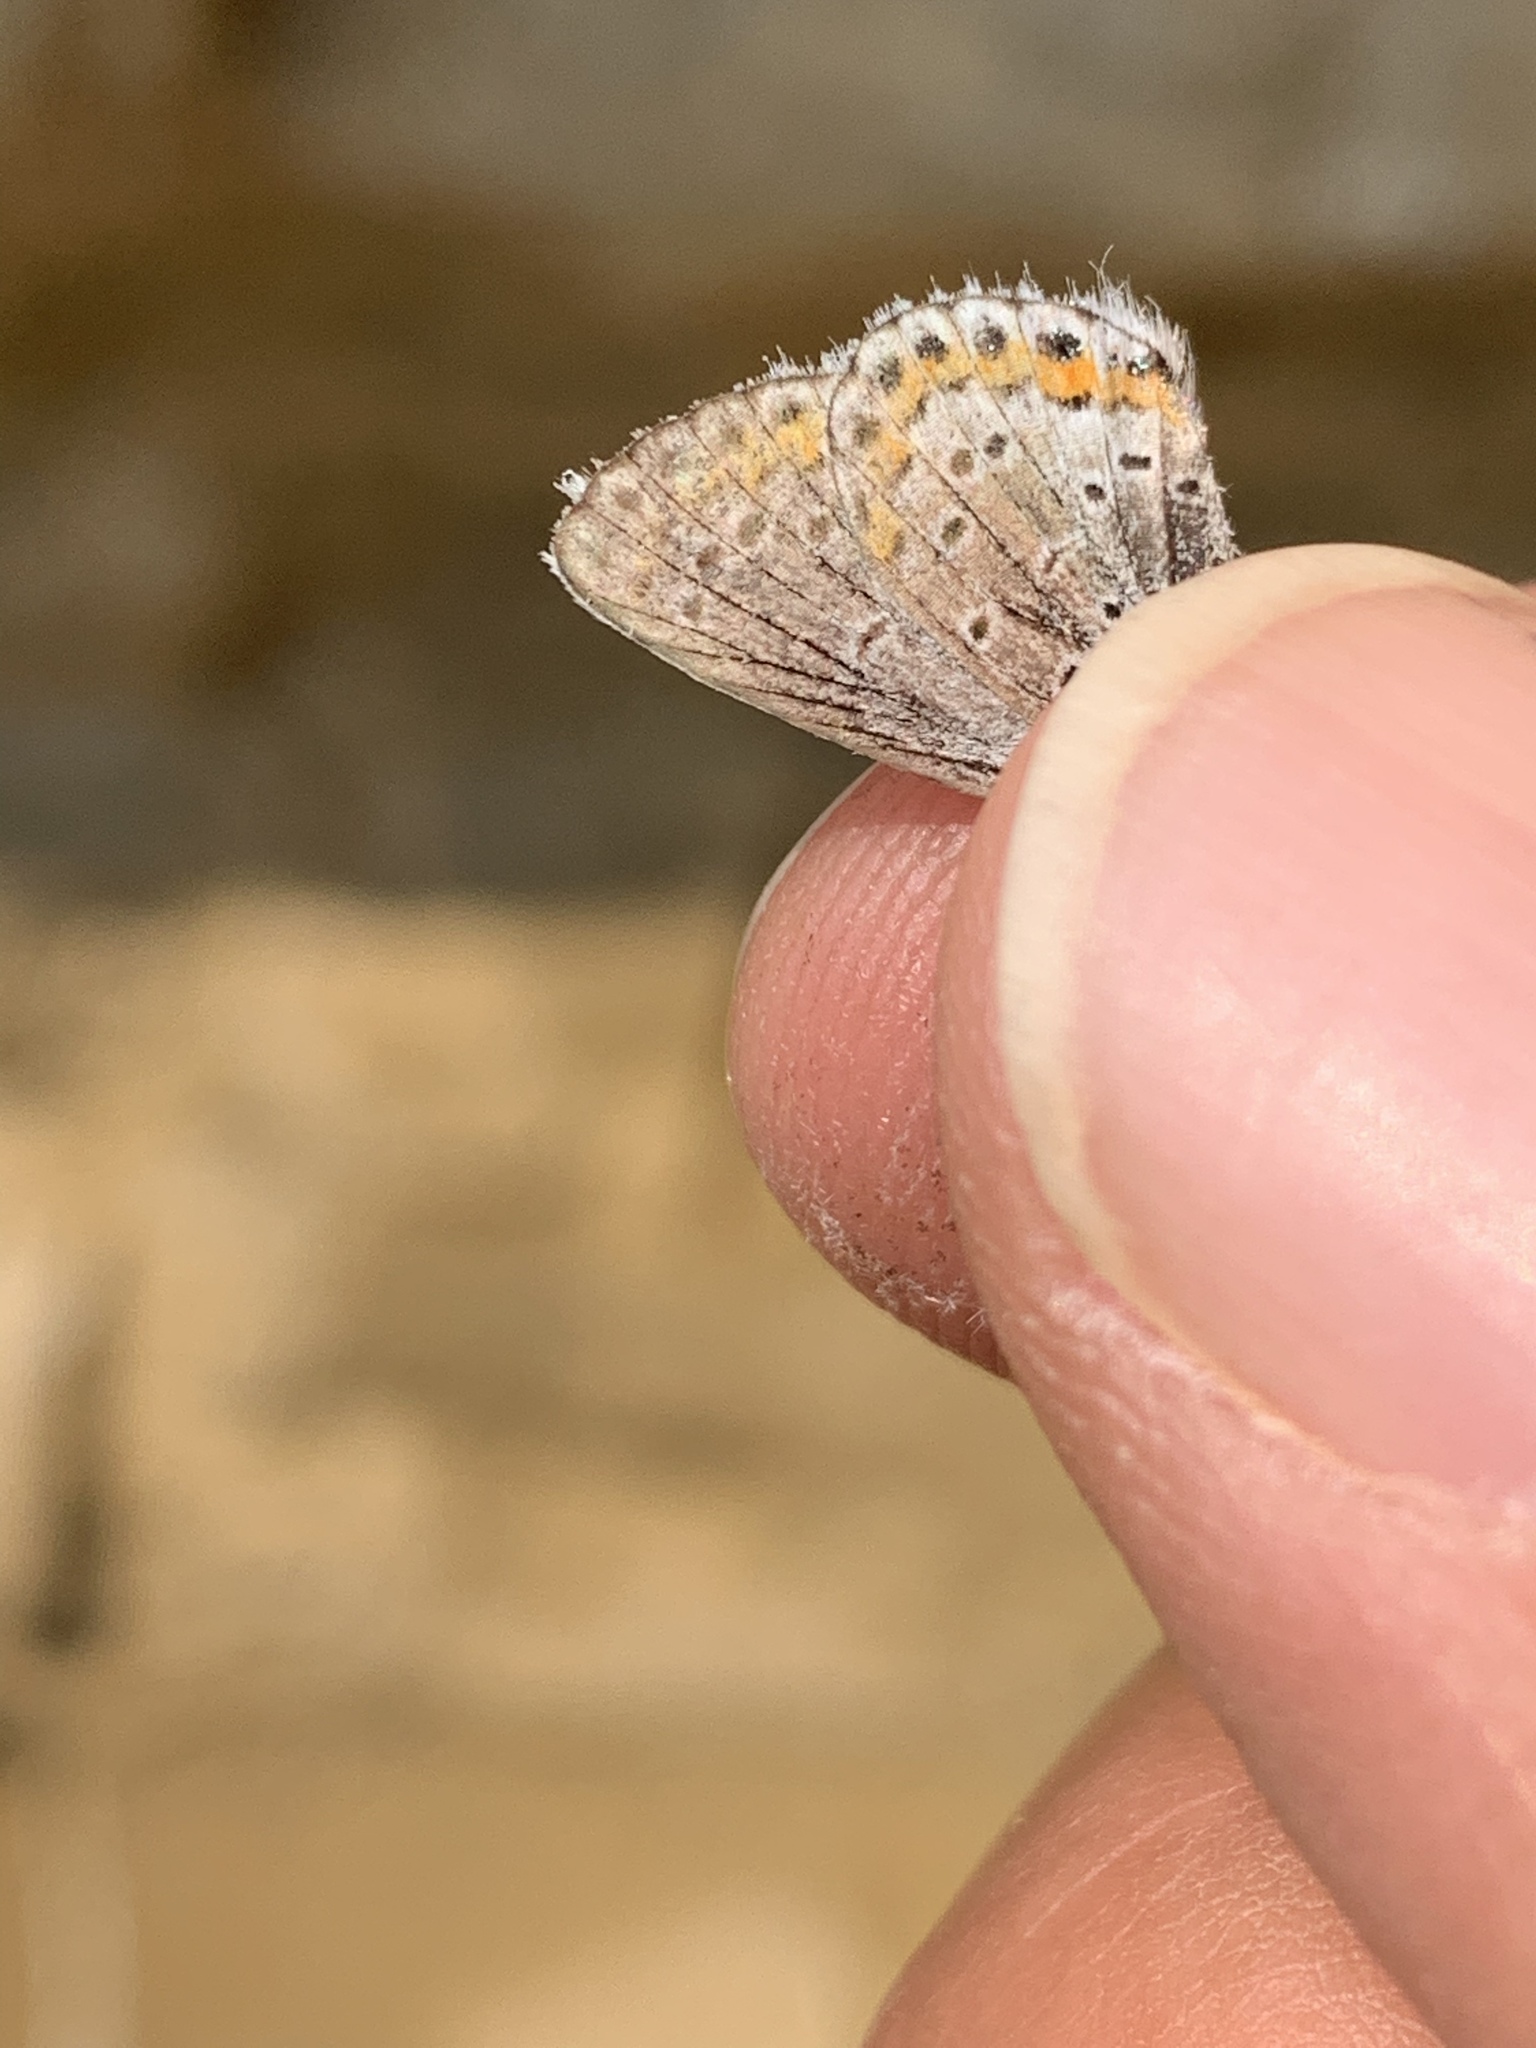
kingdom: Animalia
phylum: Arthropoda
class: Insecta
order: Lepidoptera
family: Lycaenidae
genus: Lycaeides
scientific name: Lycaeides melissa
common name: Melissa blue
